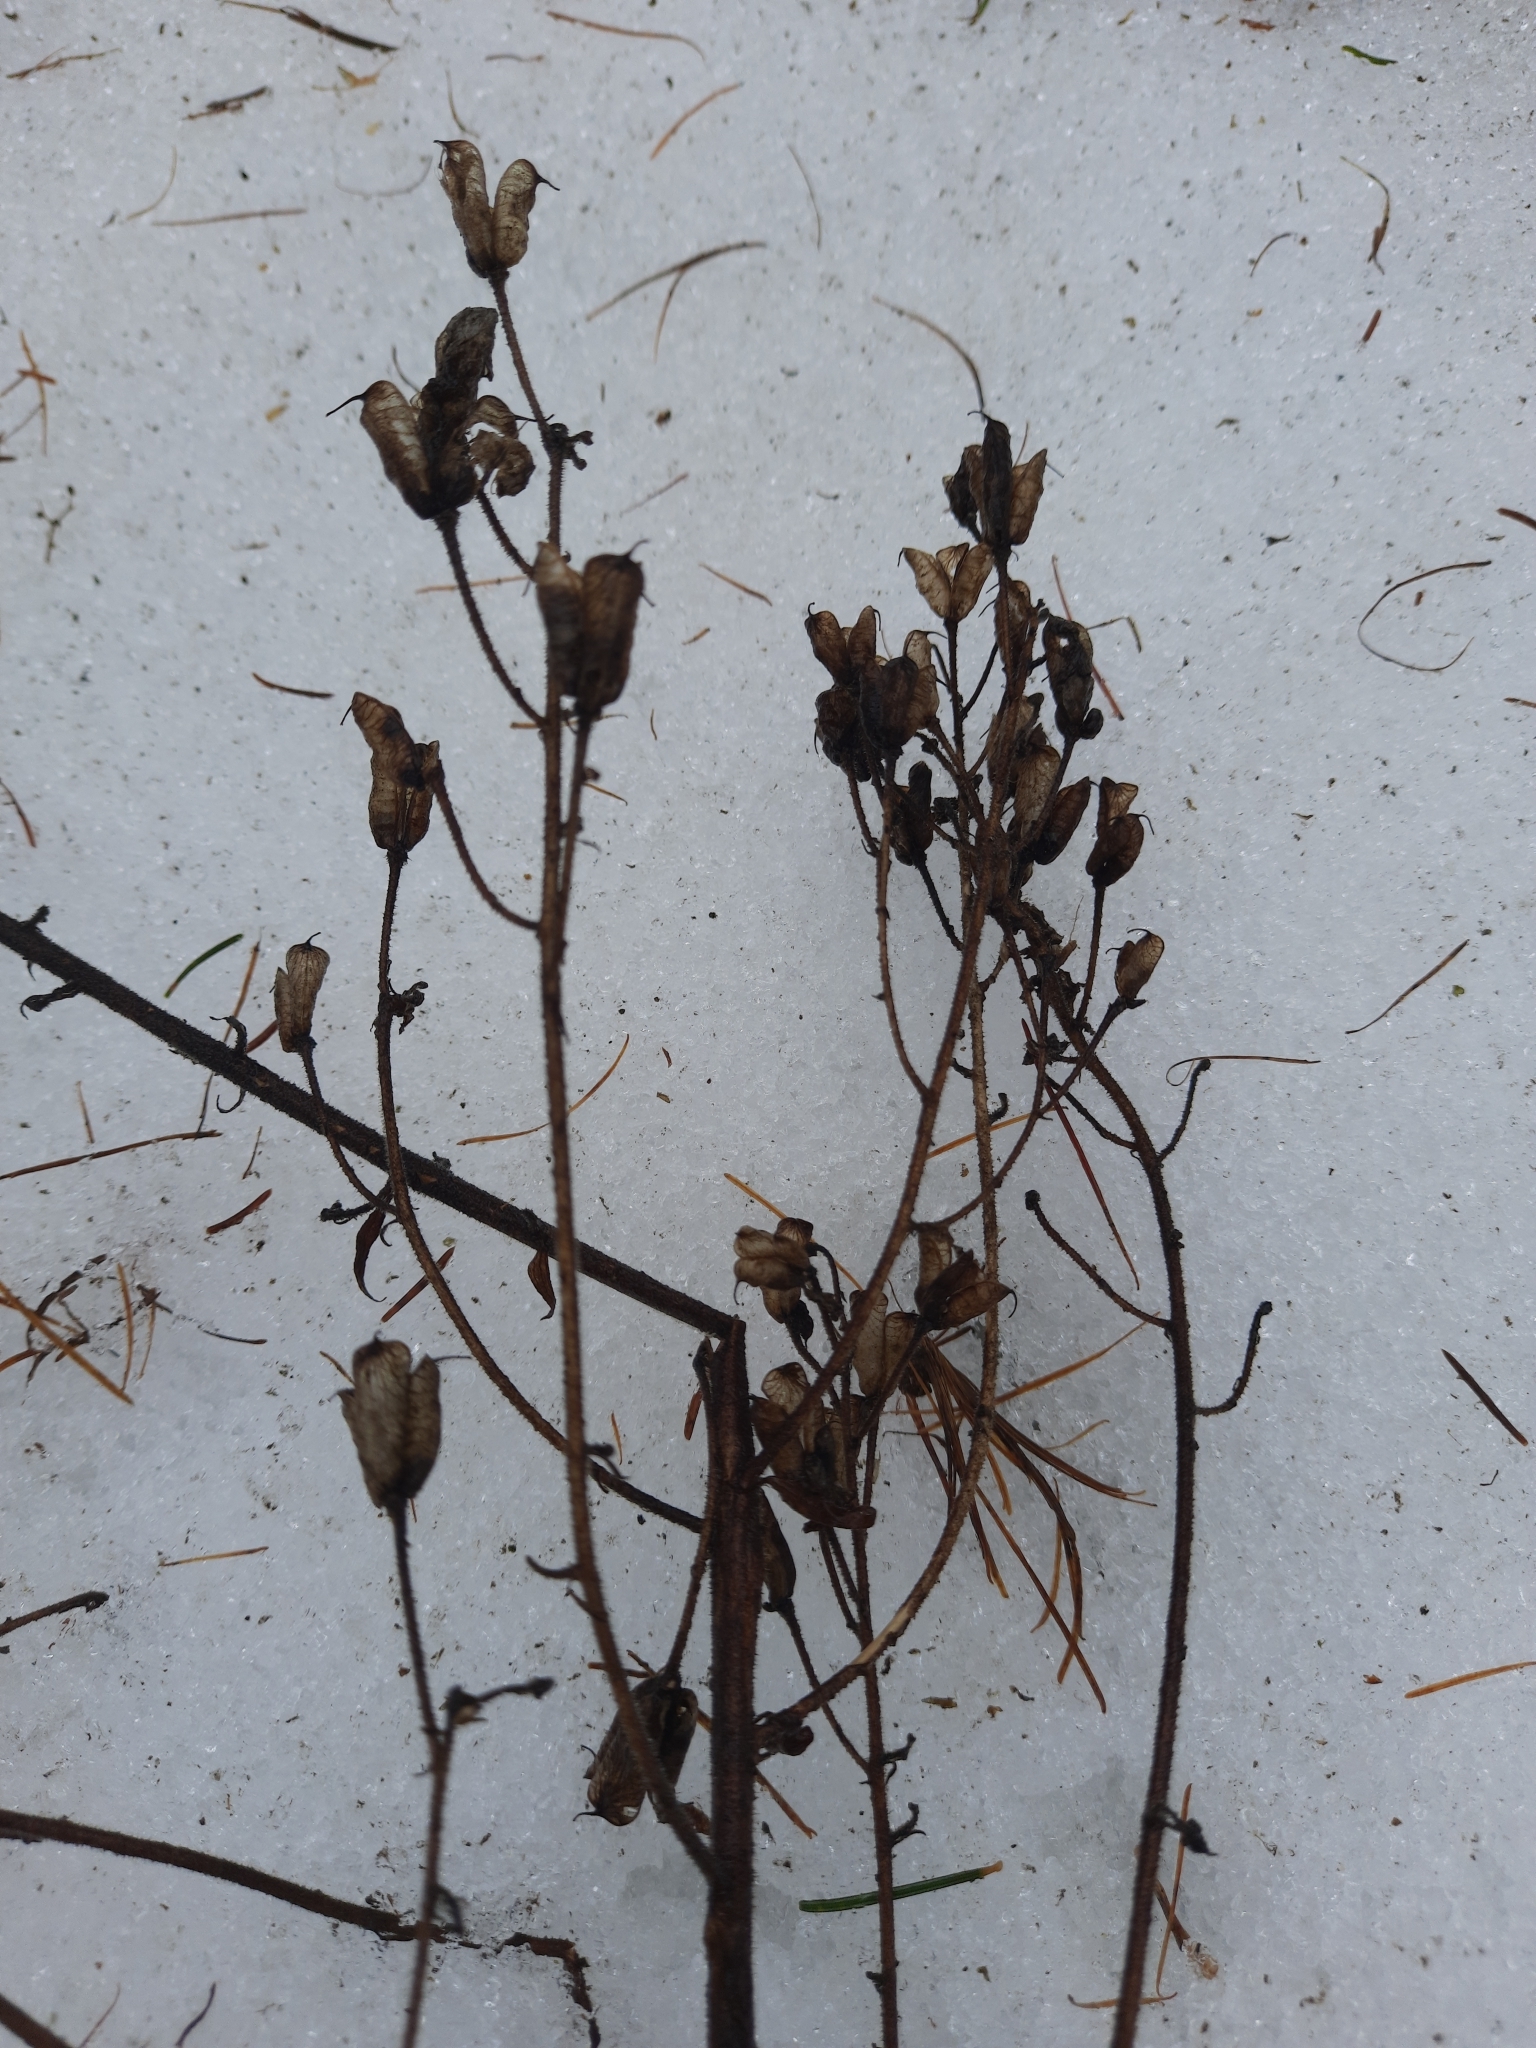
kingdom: Plantae
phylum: Tracheophyta
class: Magnoliopsida
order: Ranunculales
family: Ranunculaceae
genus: Aconitum
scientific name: Aconitum septentrionale
